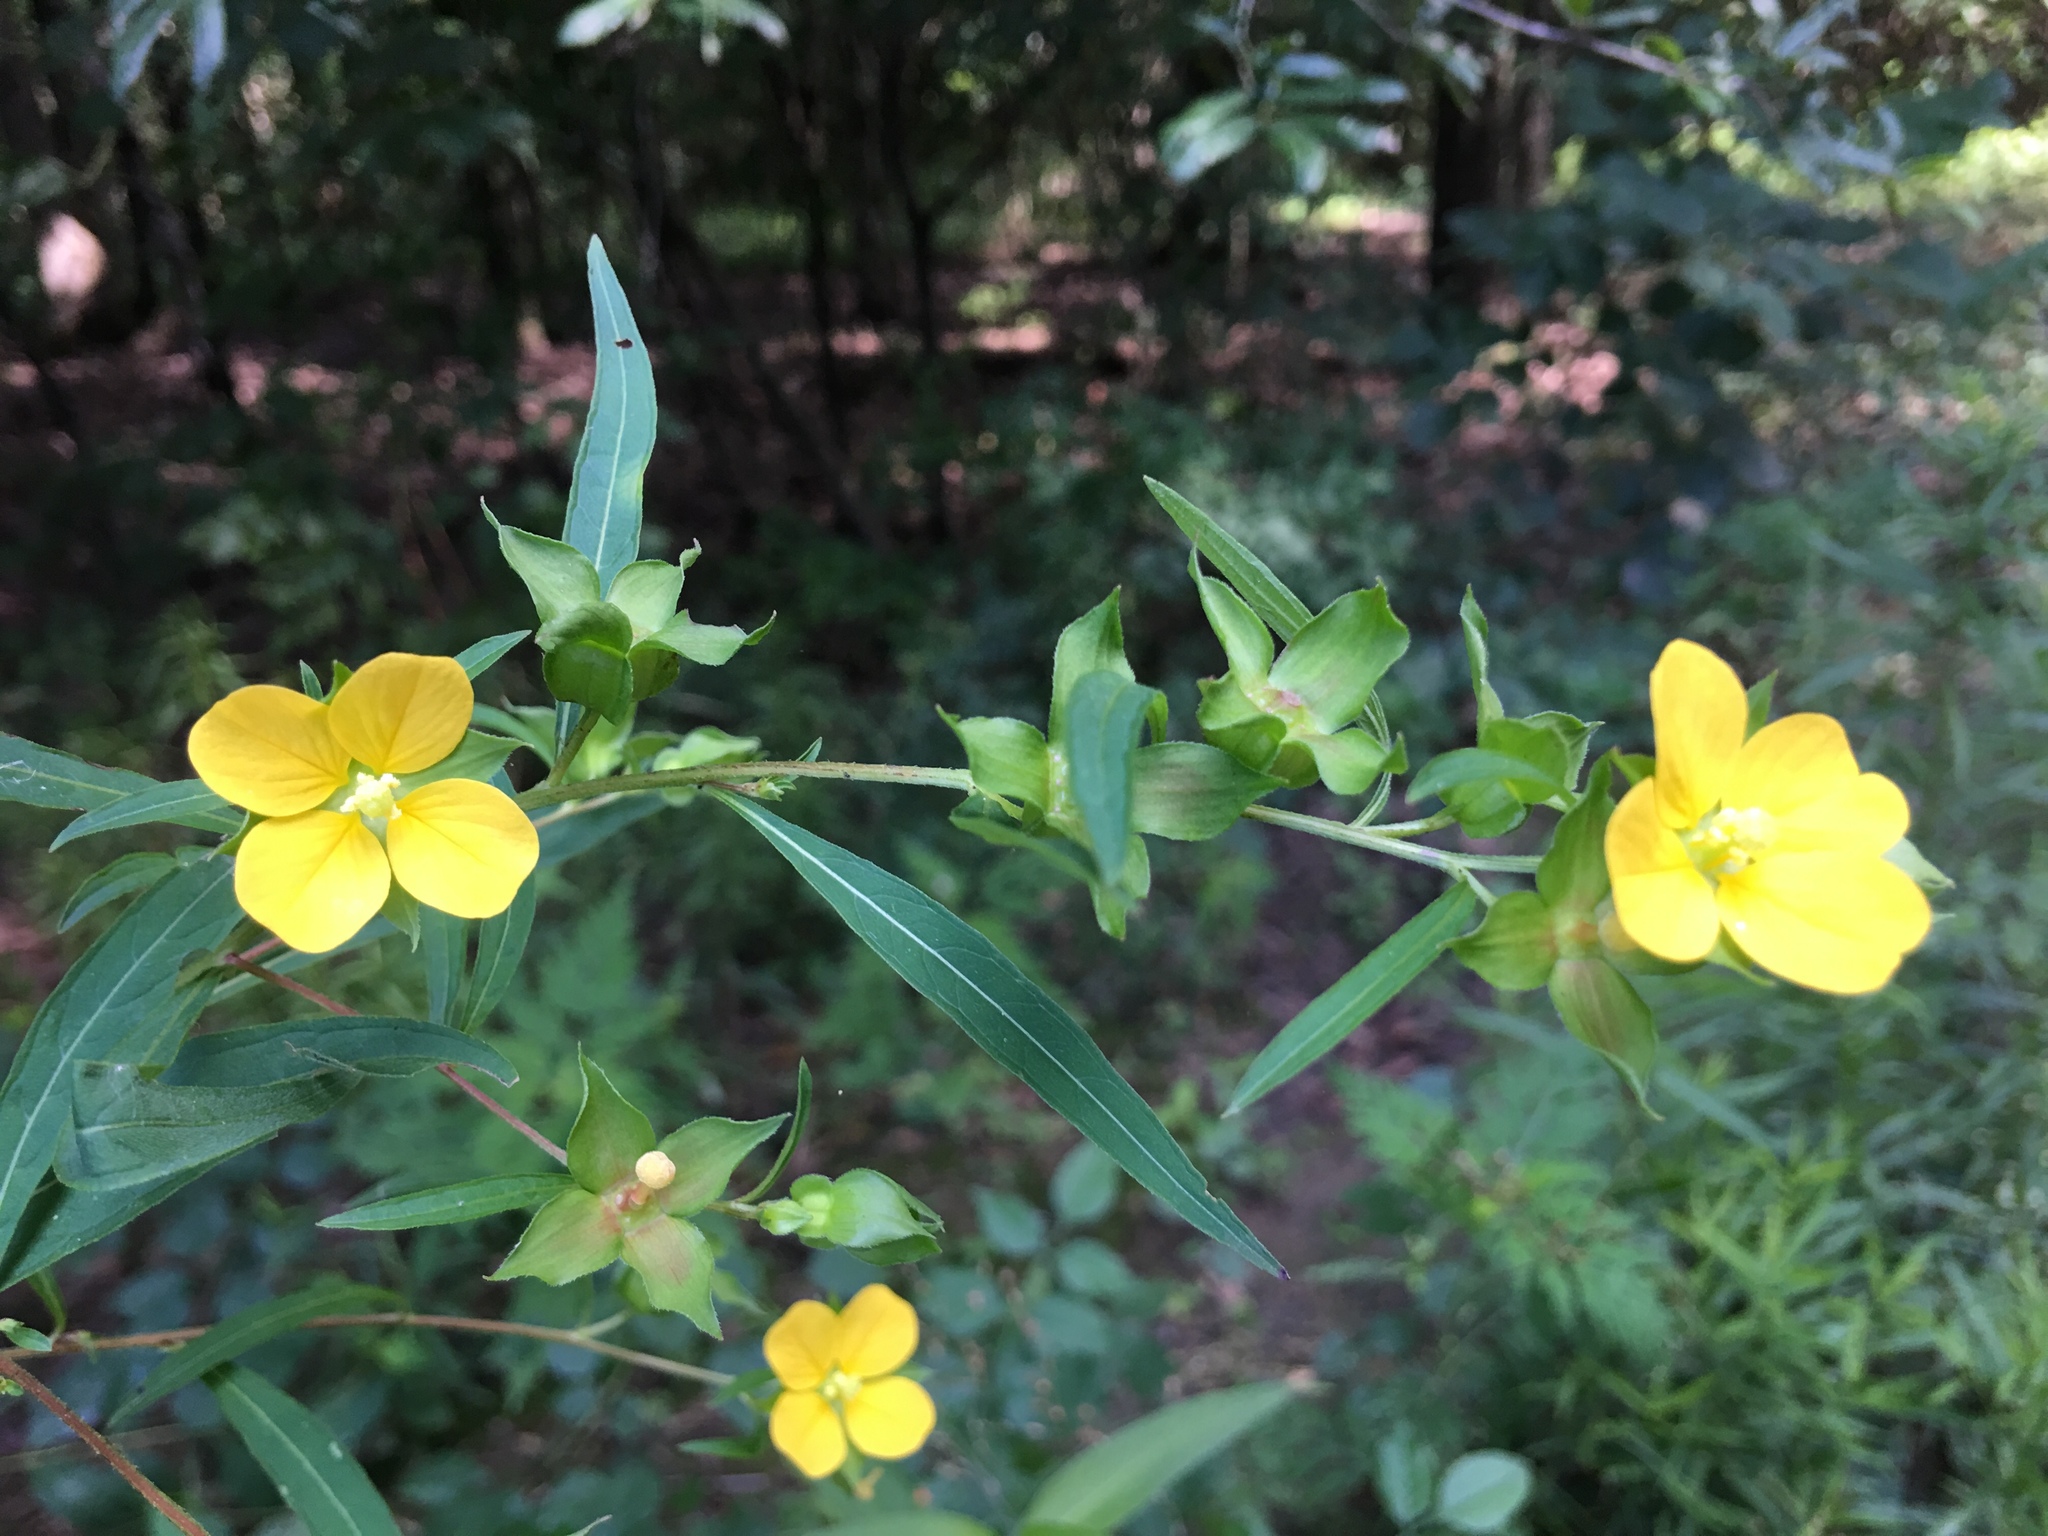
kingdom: Plantae
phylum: Tracheophyta
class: Magnoliopsida
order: Myrtales
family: Onagraceae
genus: Ludwigia
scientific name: Ludwigia alternifolia
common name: Rattlebox
